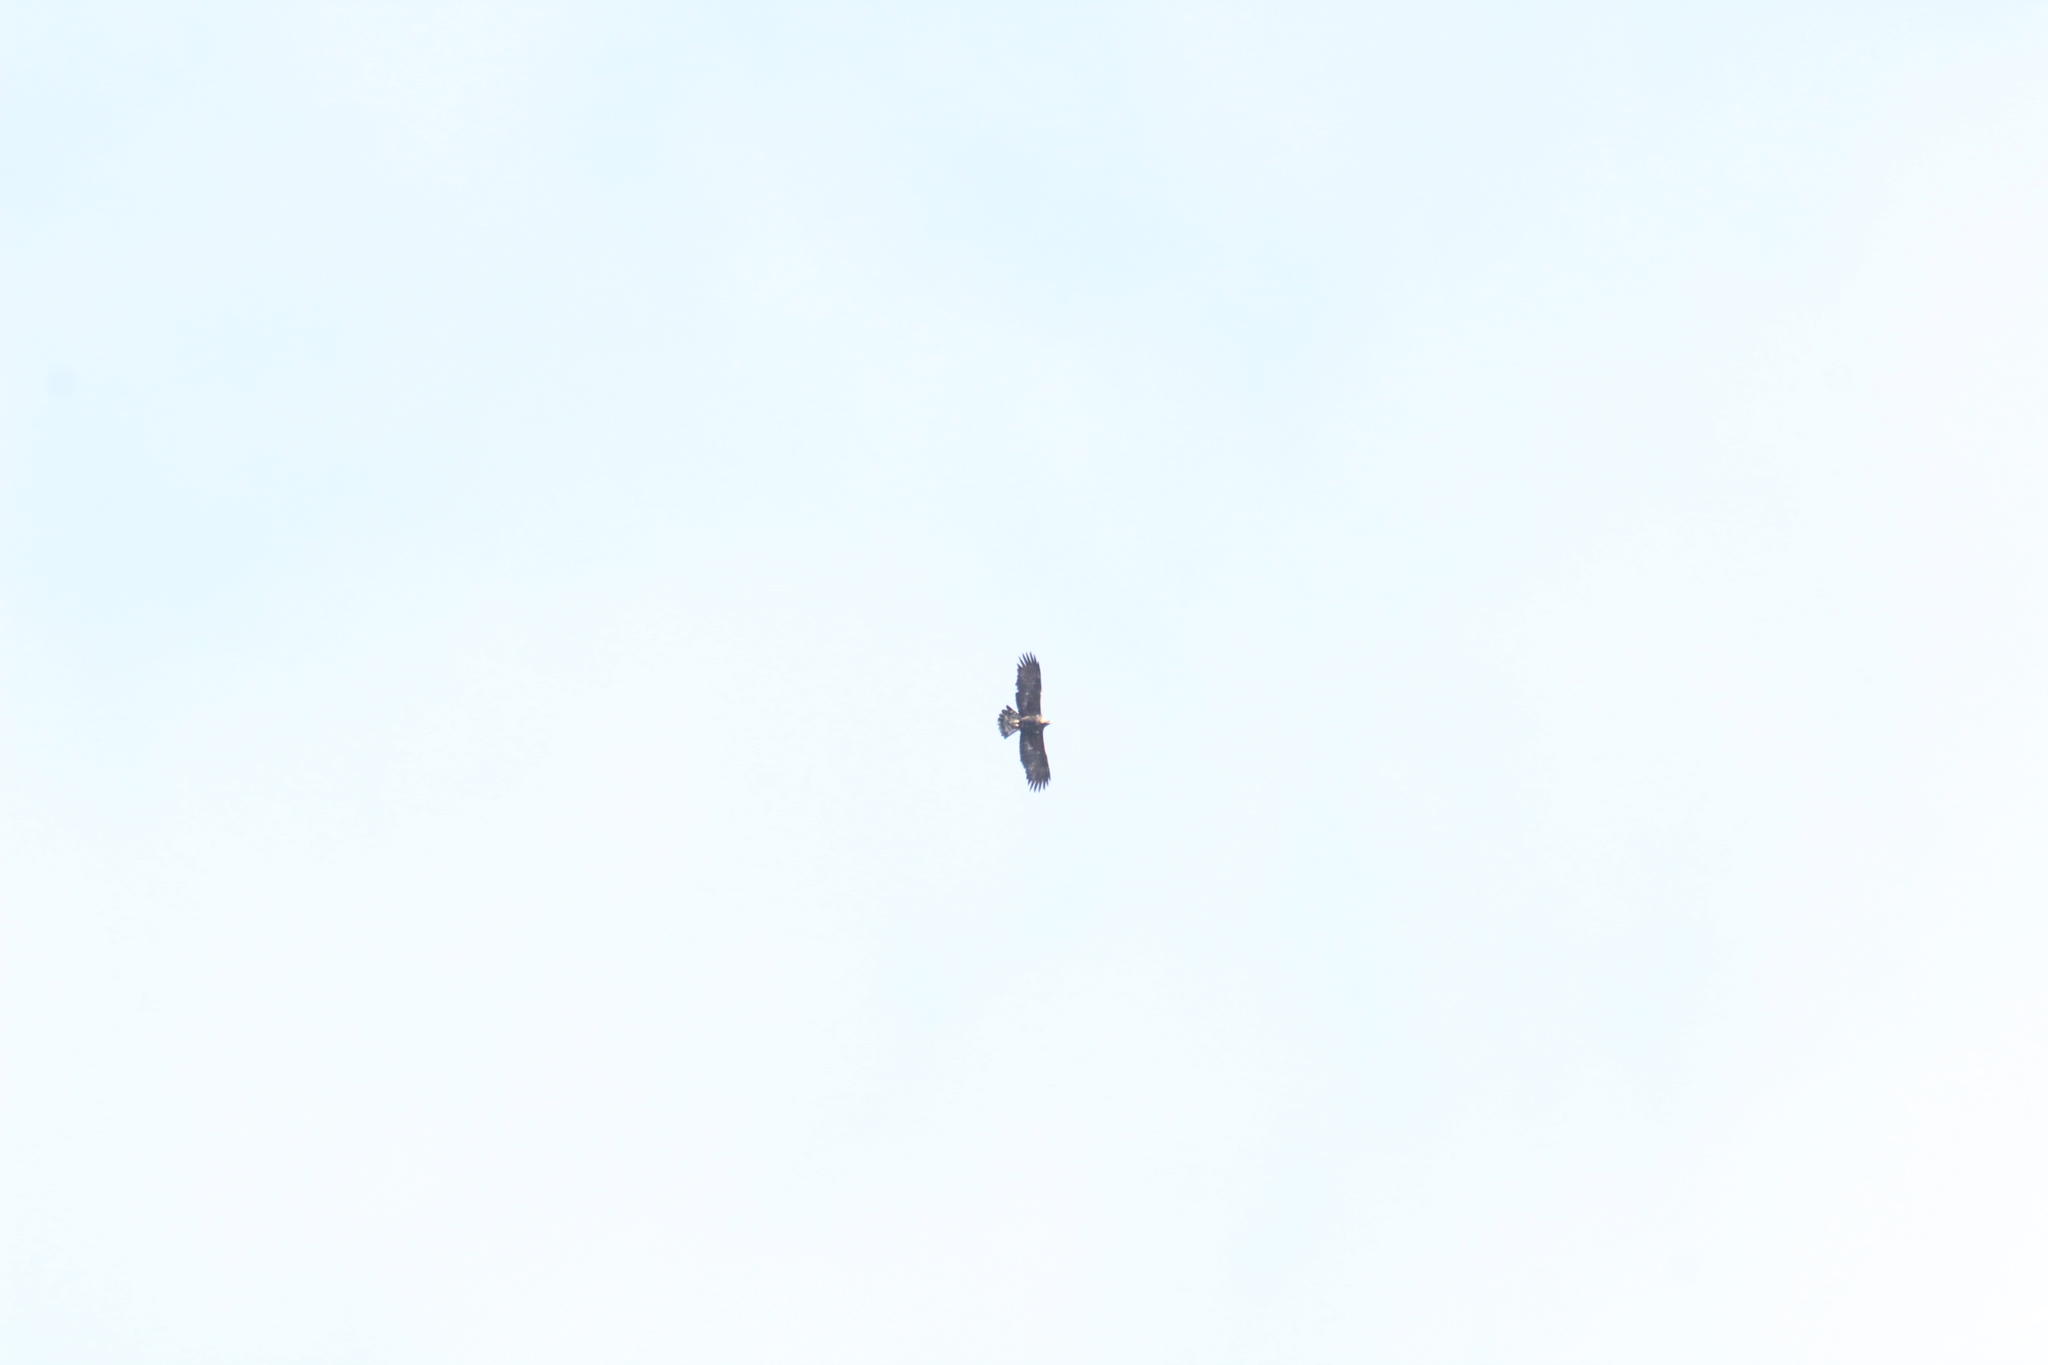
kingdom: Animalia
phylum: Chordata
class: Aves
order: Accipitriformes
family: Accipitridae
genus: Aquila
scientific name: Aquila chrysaetos
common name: Golden eagle
